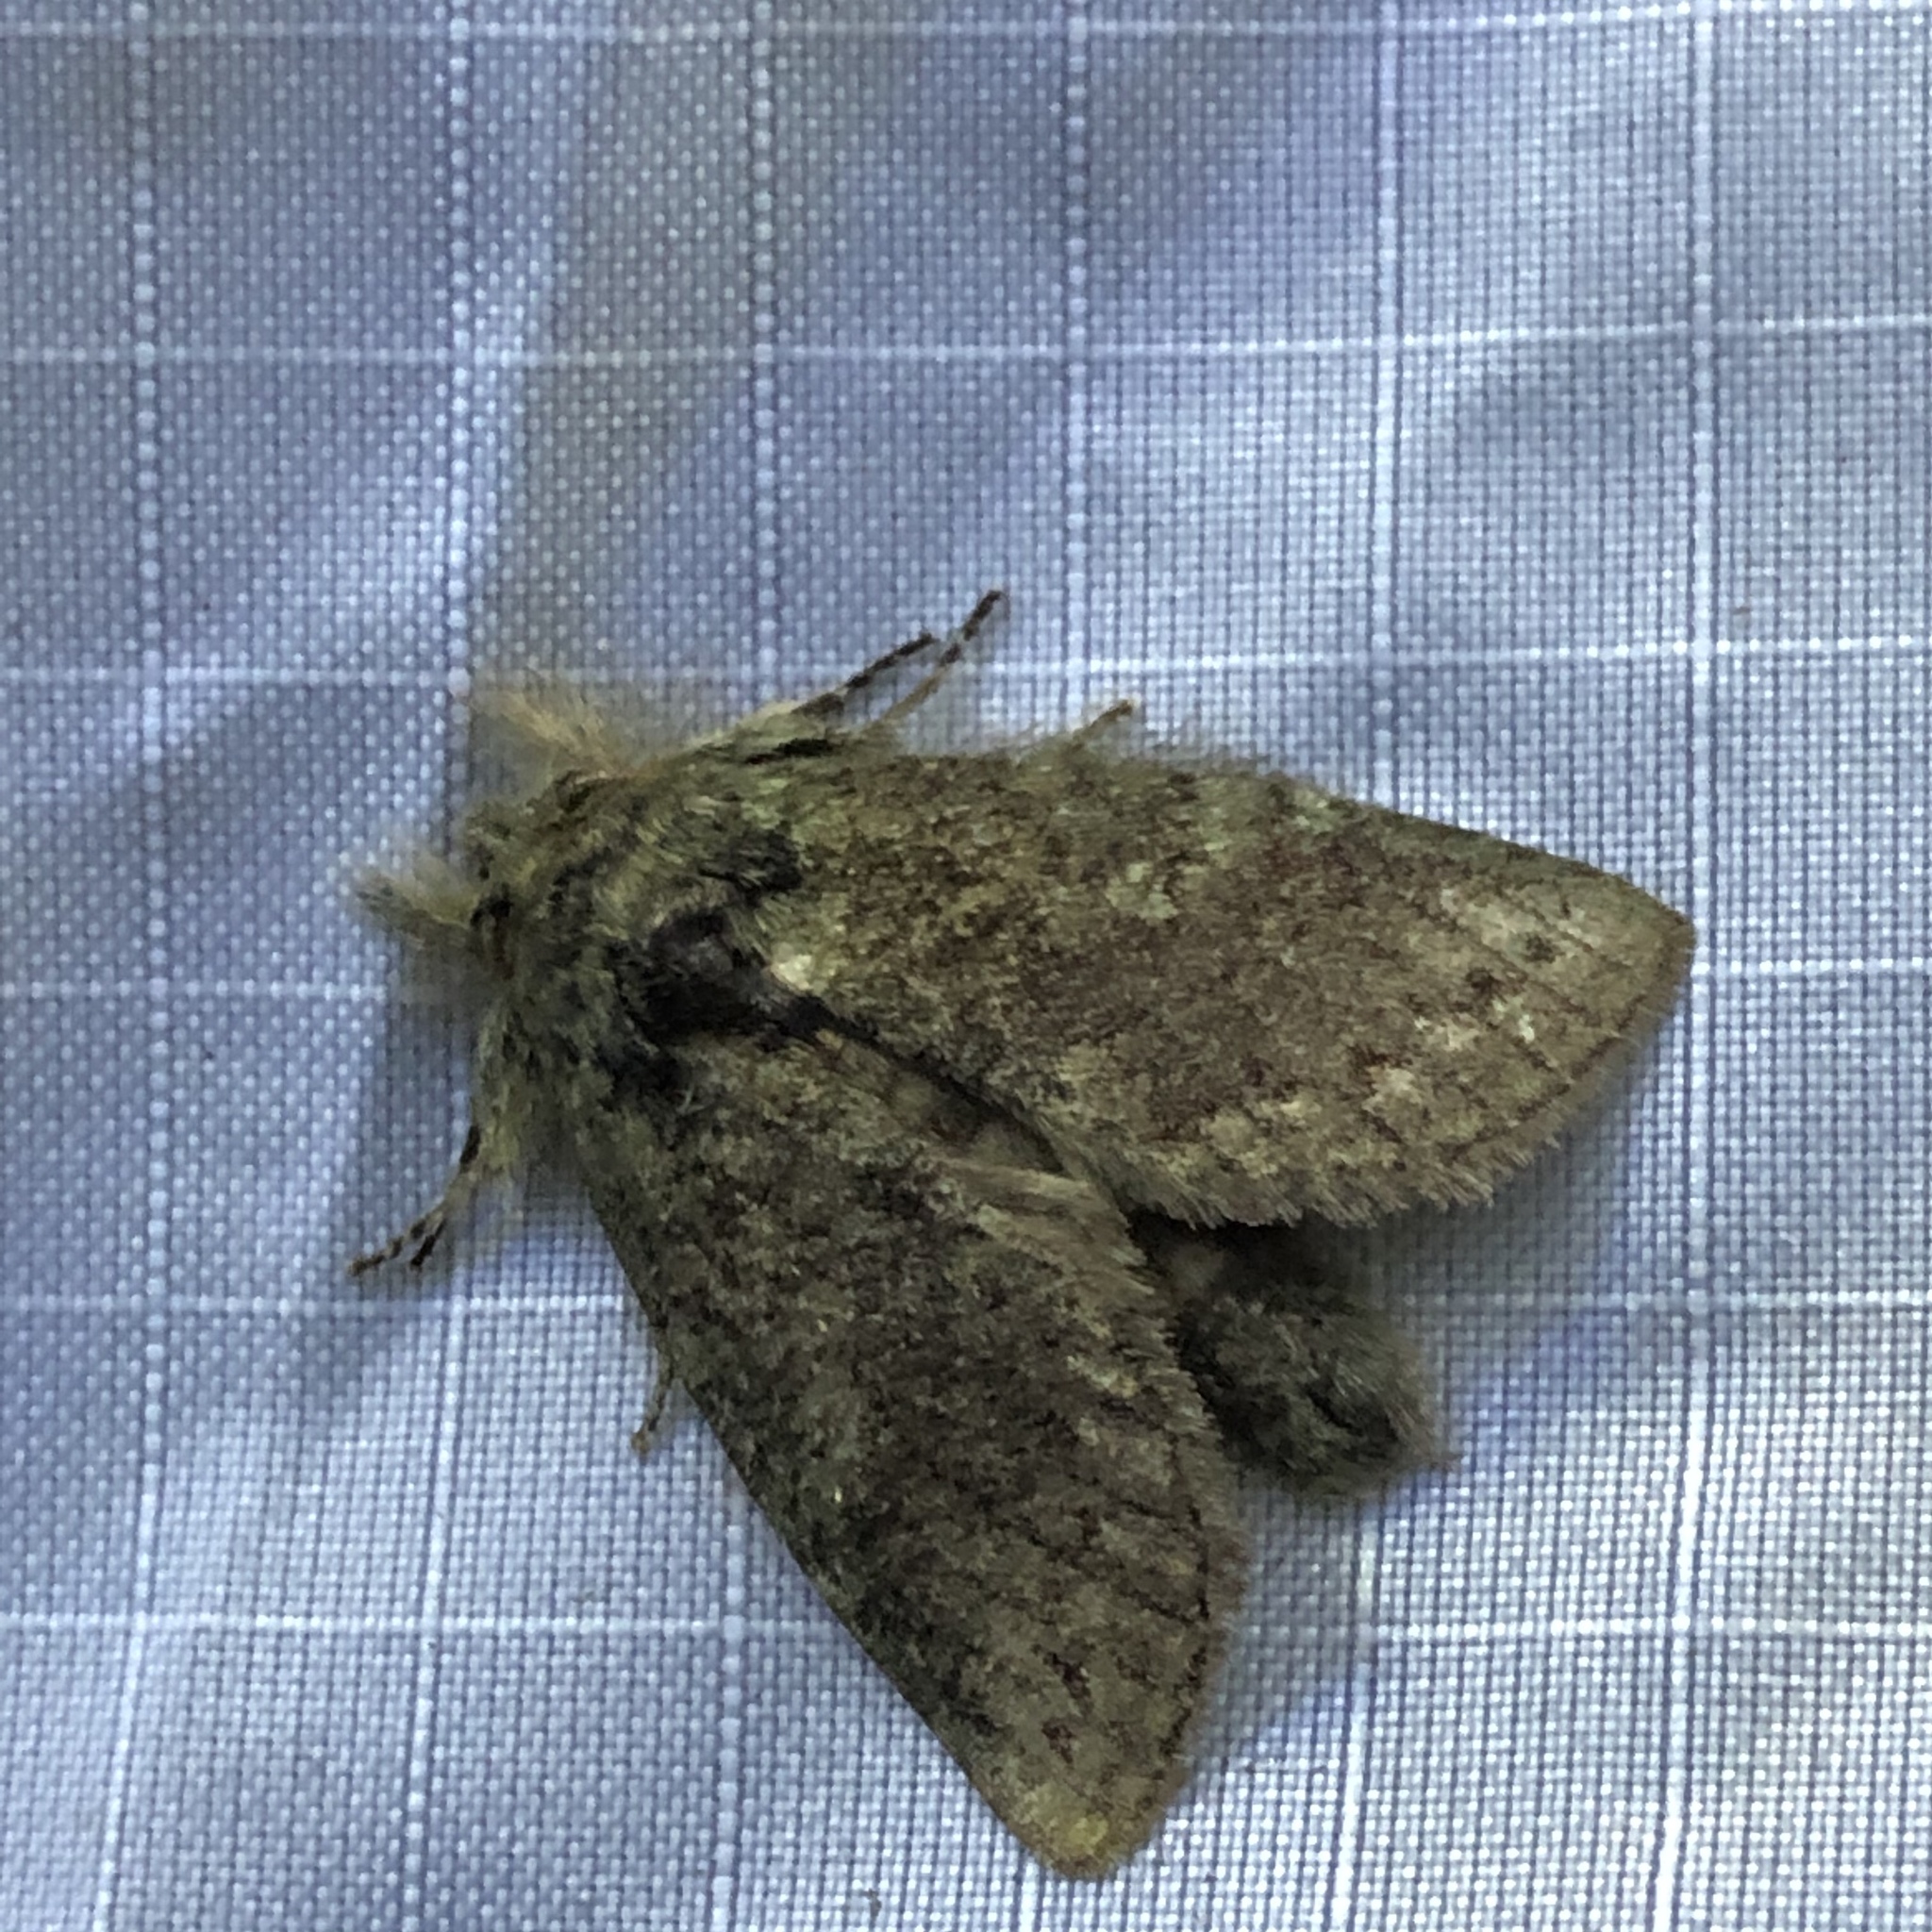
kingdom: Animalia
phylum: Arthropoda
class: Insecta
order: Lepidoptera
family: Notodontidae
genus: Disphragis
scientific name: Disphragis Cecrita guttivitta
